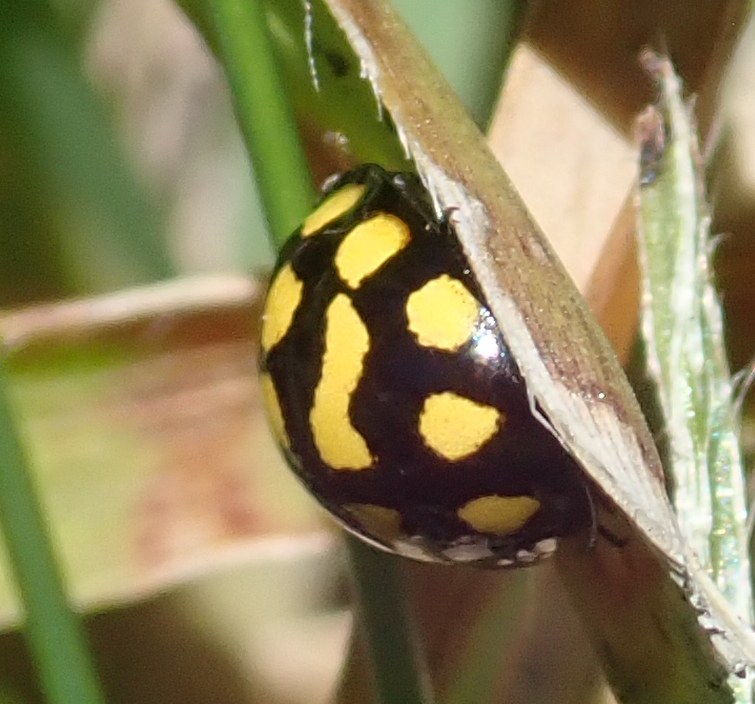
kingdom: Animalia
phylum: Arthropoda
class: Insecta
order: Coleoptera
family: Coccinellidae
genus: Lioadalia
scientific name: Lioadalia
